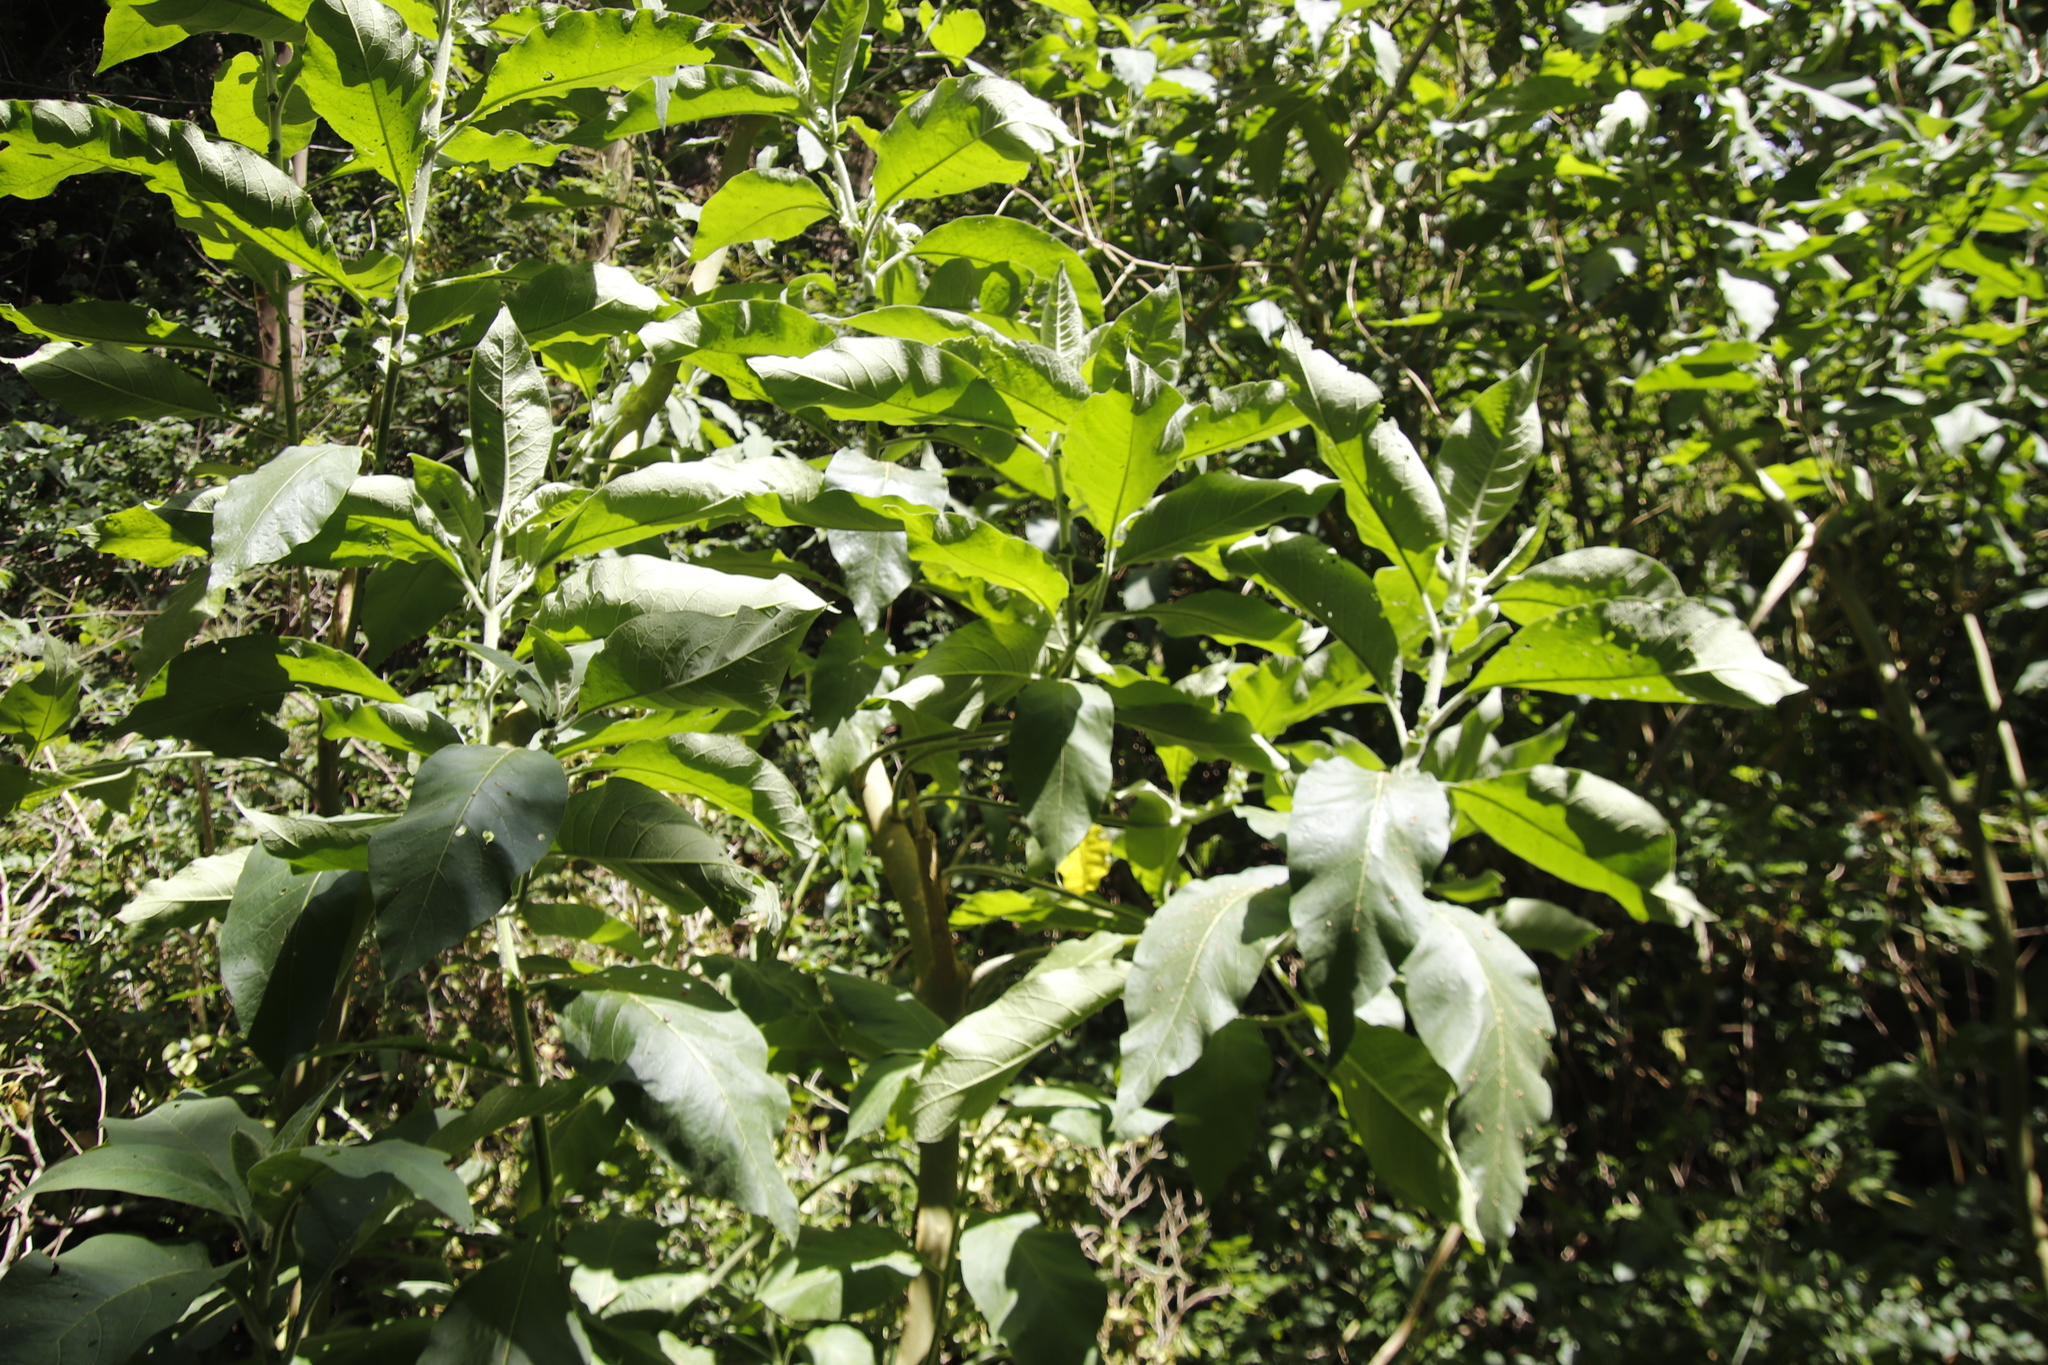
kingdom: Plantae
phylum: Tracheophyta
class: Magnoliopsida
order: Solanales
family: Solanaceae
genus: Solanum
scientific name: Solanum mauritianum
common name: Earleaf nightshade
